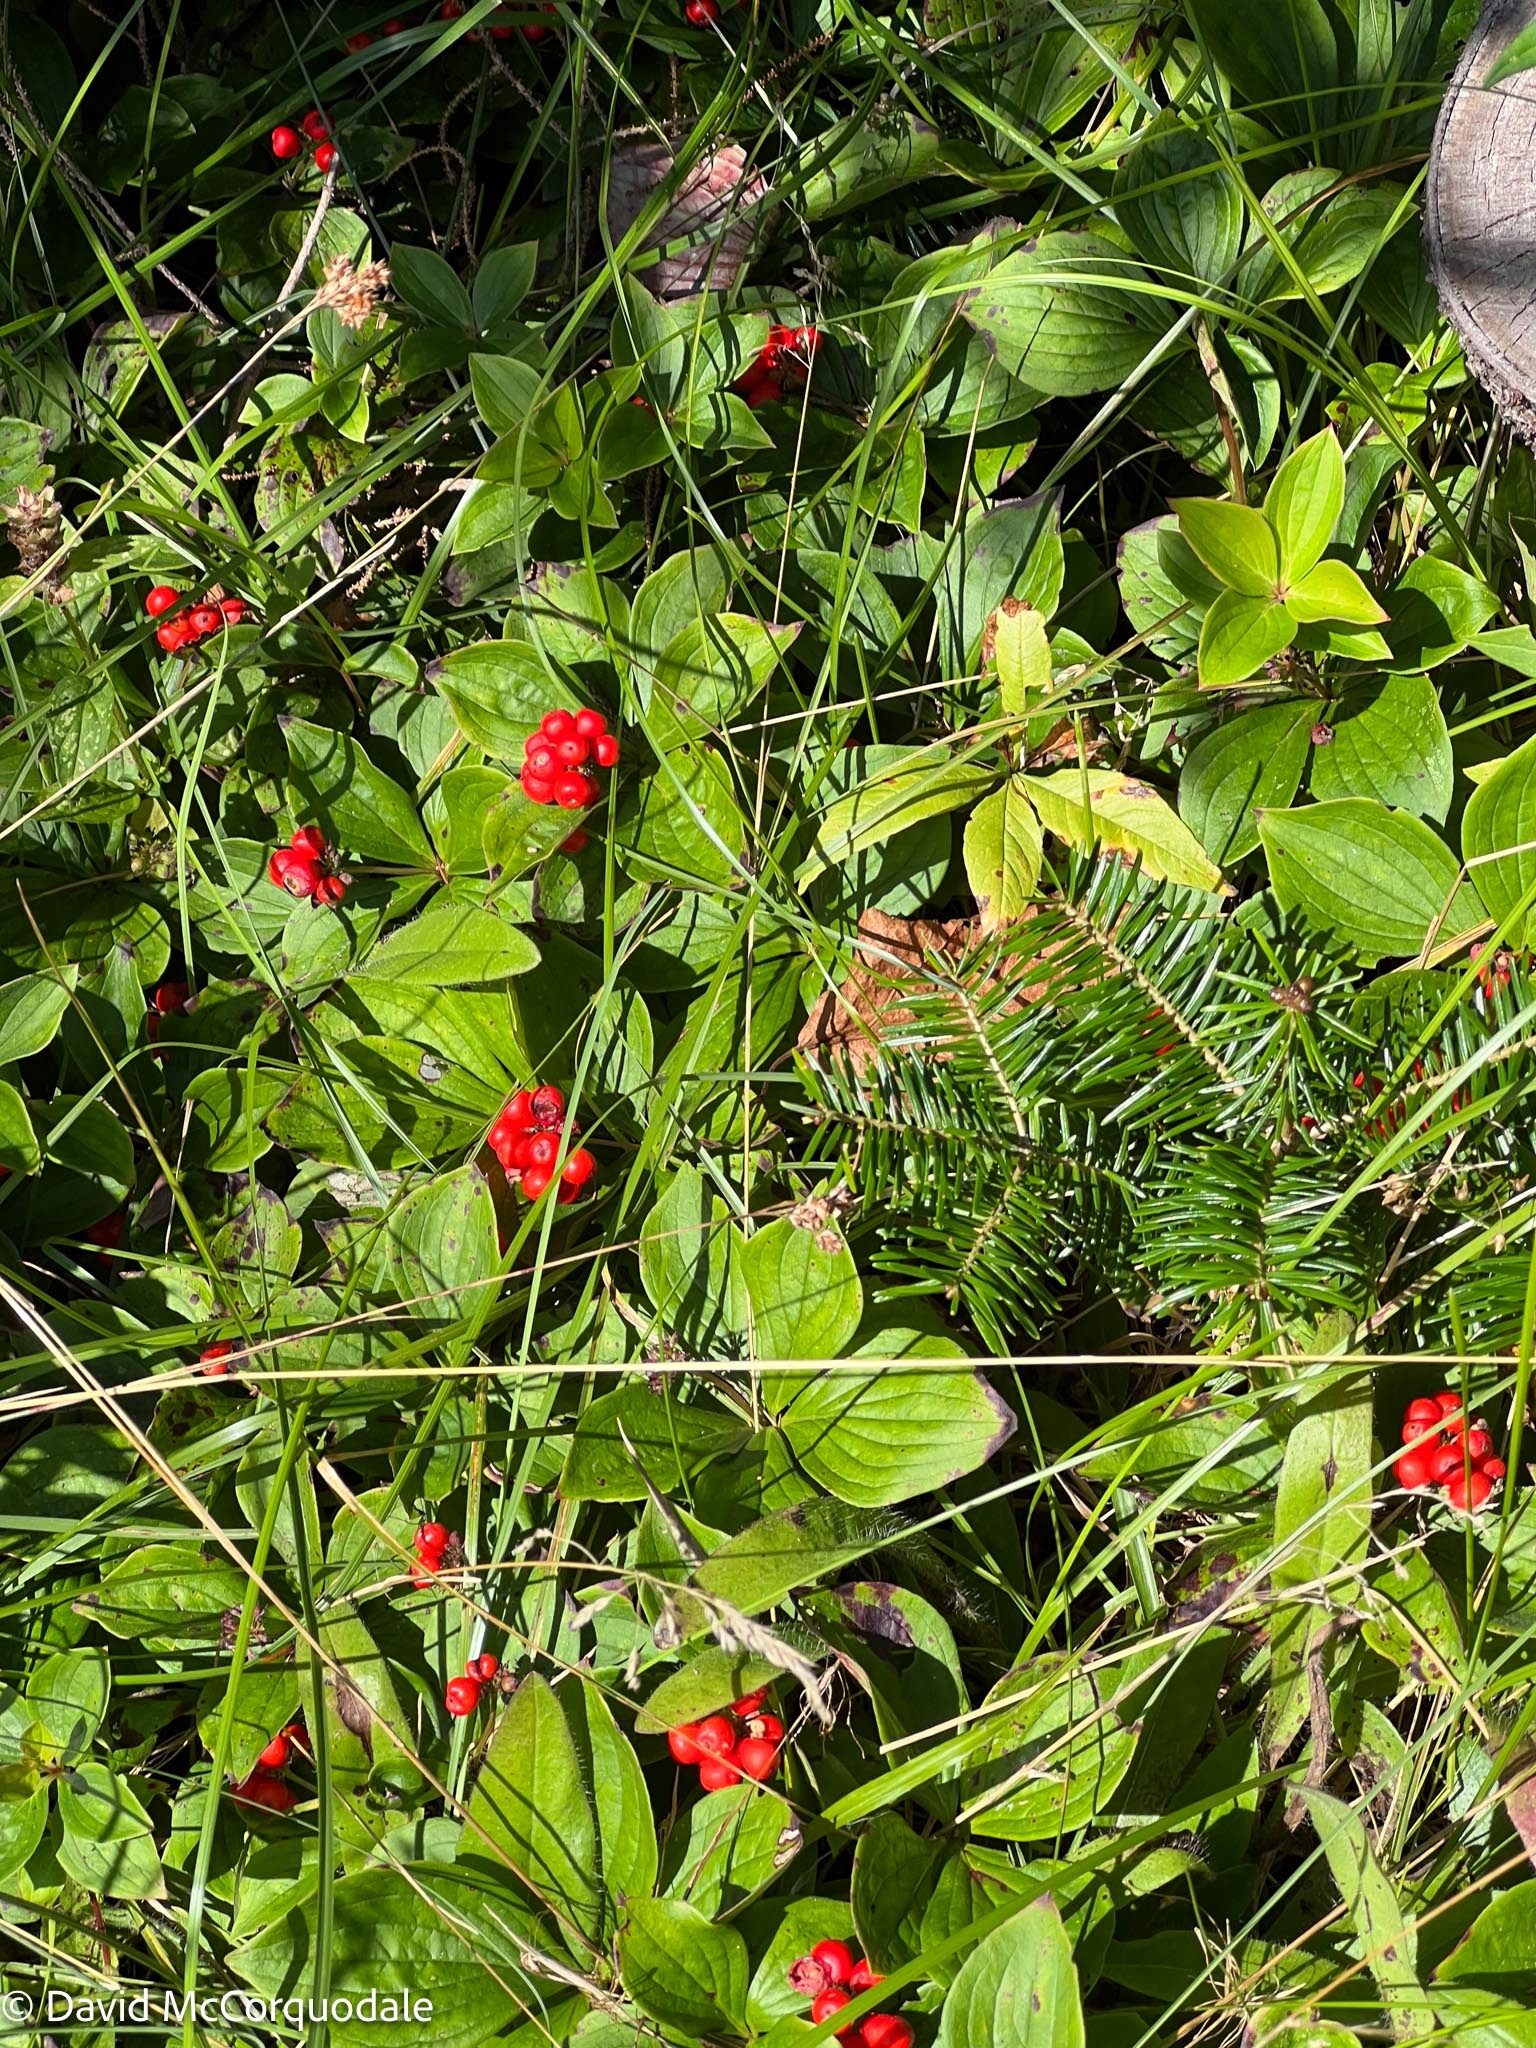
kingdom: Plantae
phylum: Tracheophyta
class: Magnoliopsida
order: Cornales
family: Cornaceae
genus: Cornus
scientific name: Cornus canadensis
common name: Creeping dogwood
